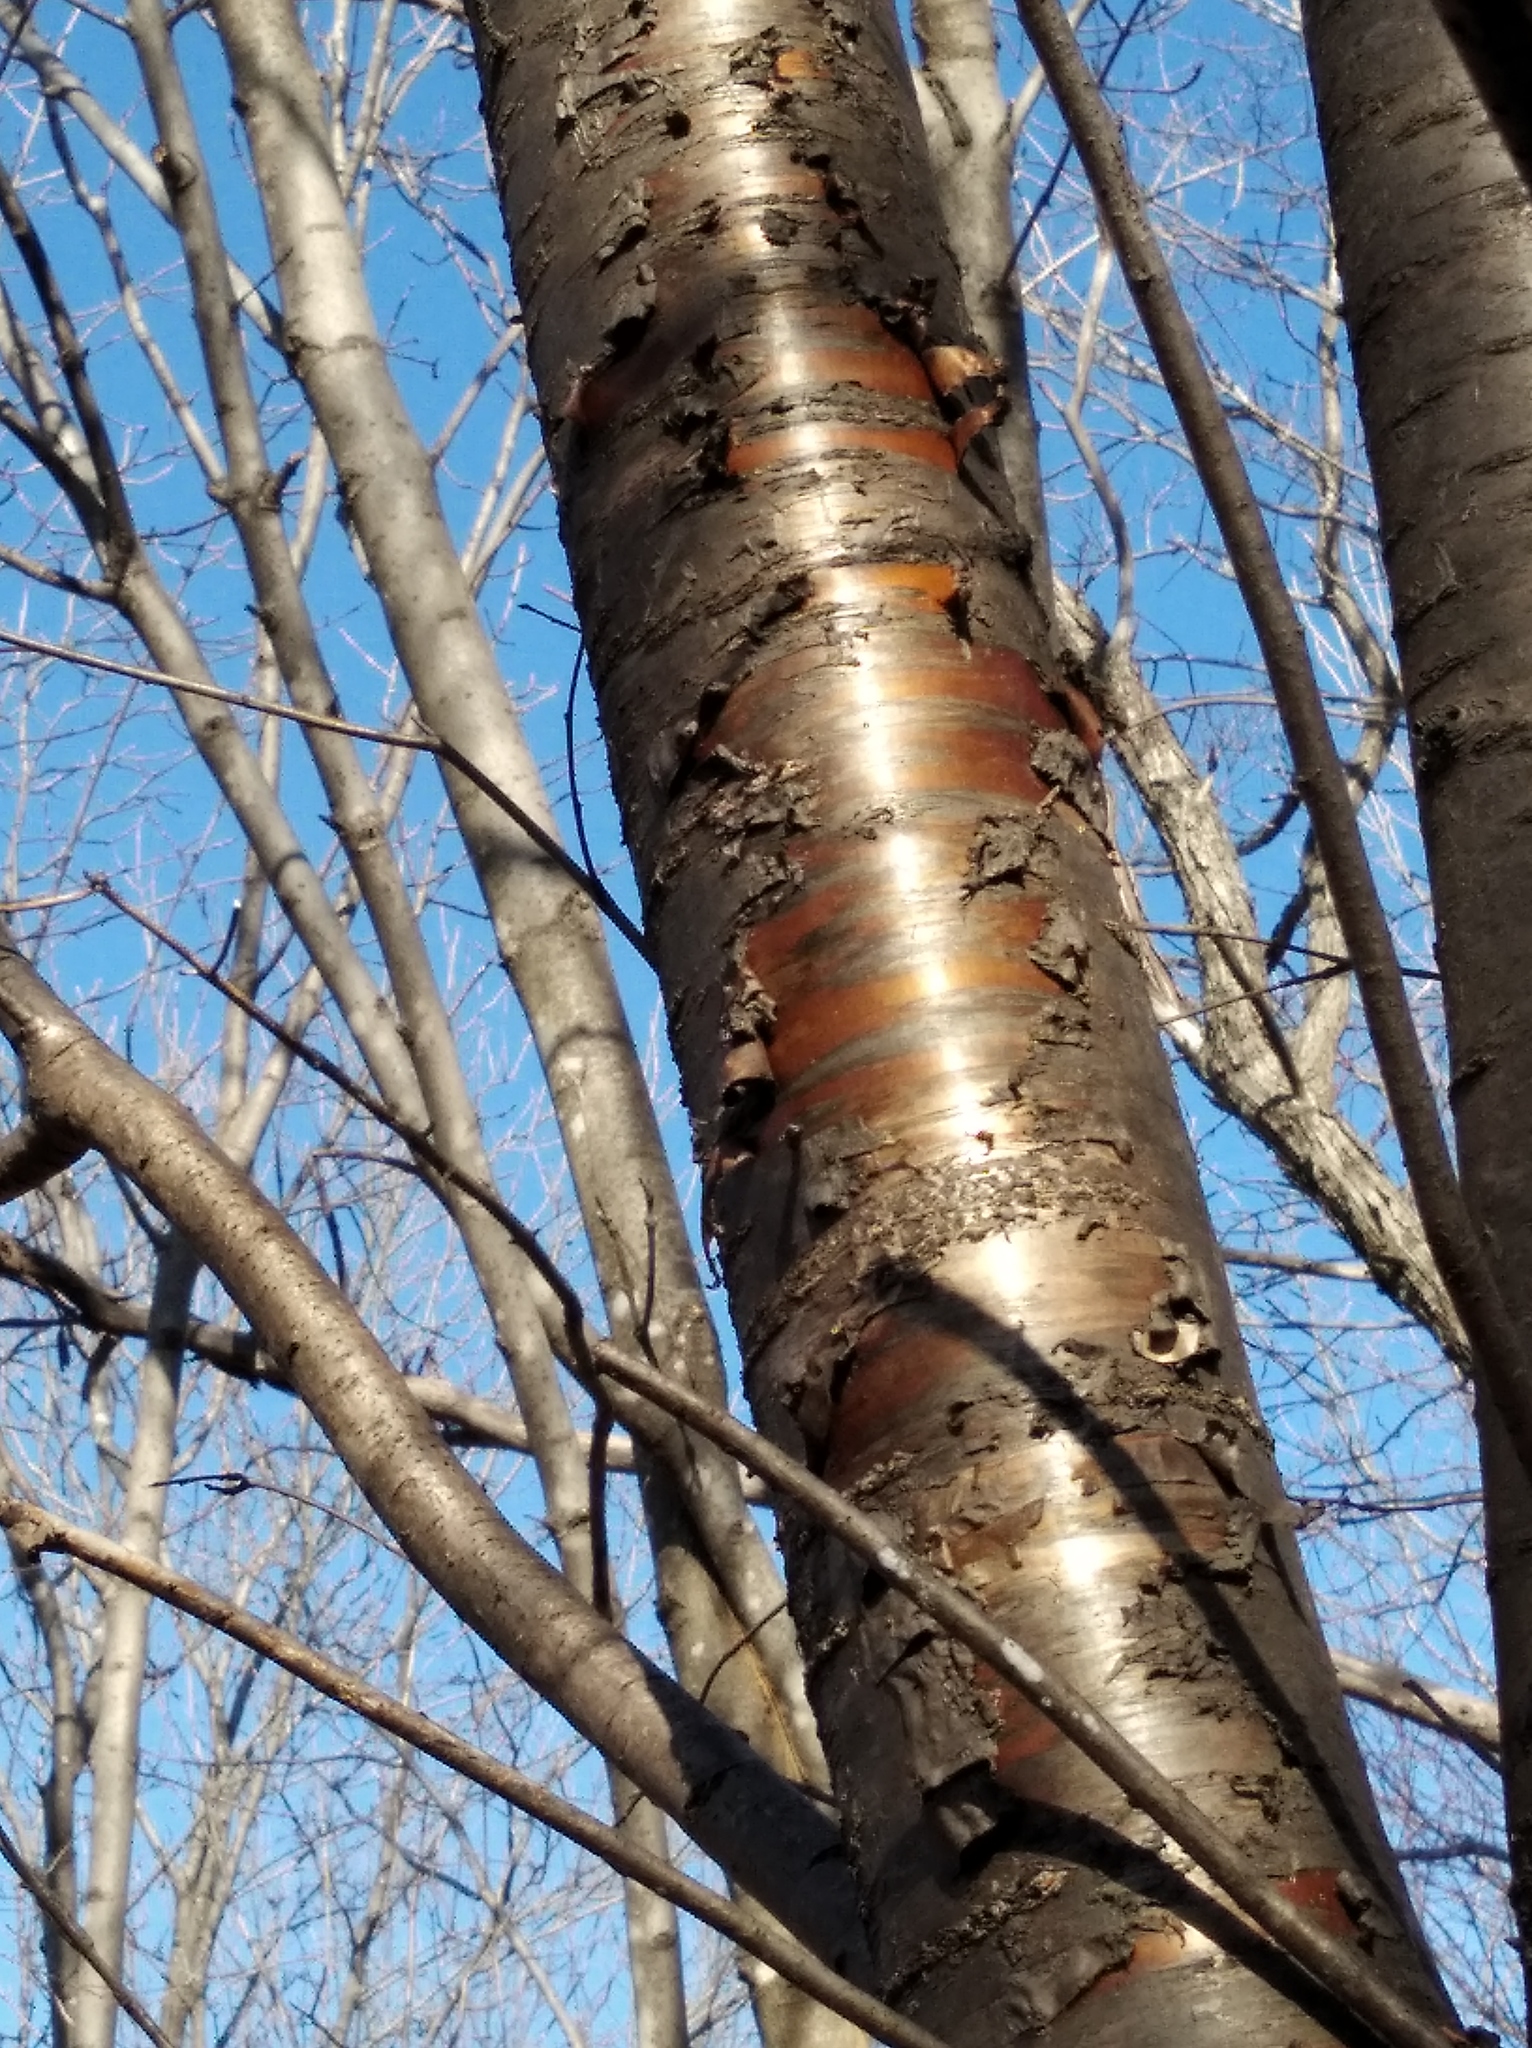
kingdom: Plantae
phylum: Tracheophyta
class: Magnoliopsida
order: Rosales
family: Rosaceae
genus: Prunus
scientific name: Prunus glandulifolia
